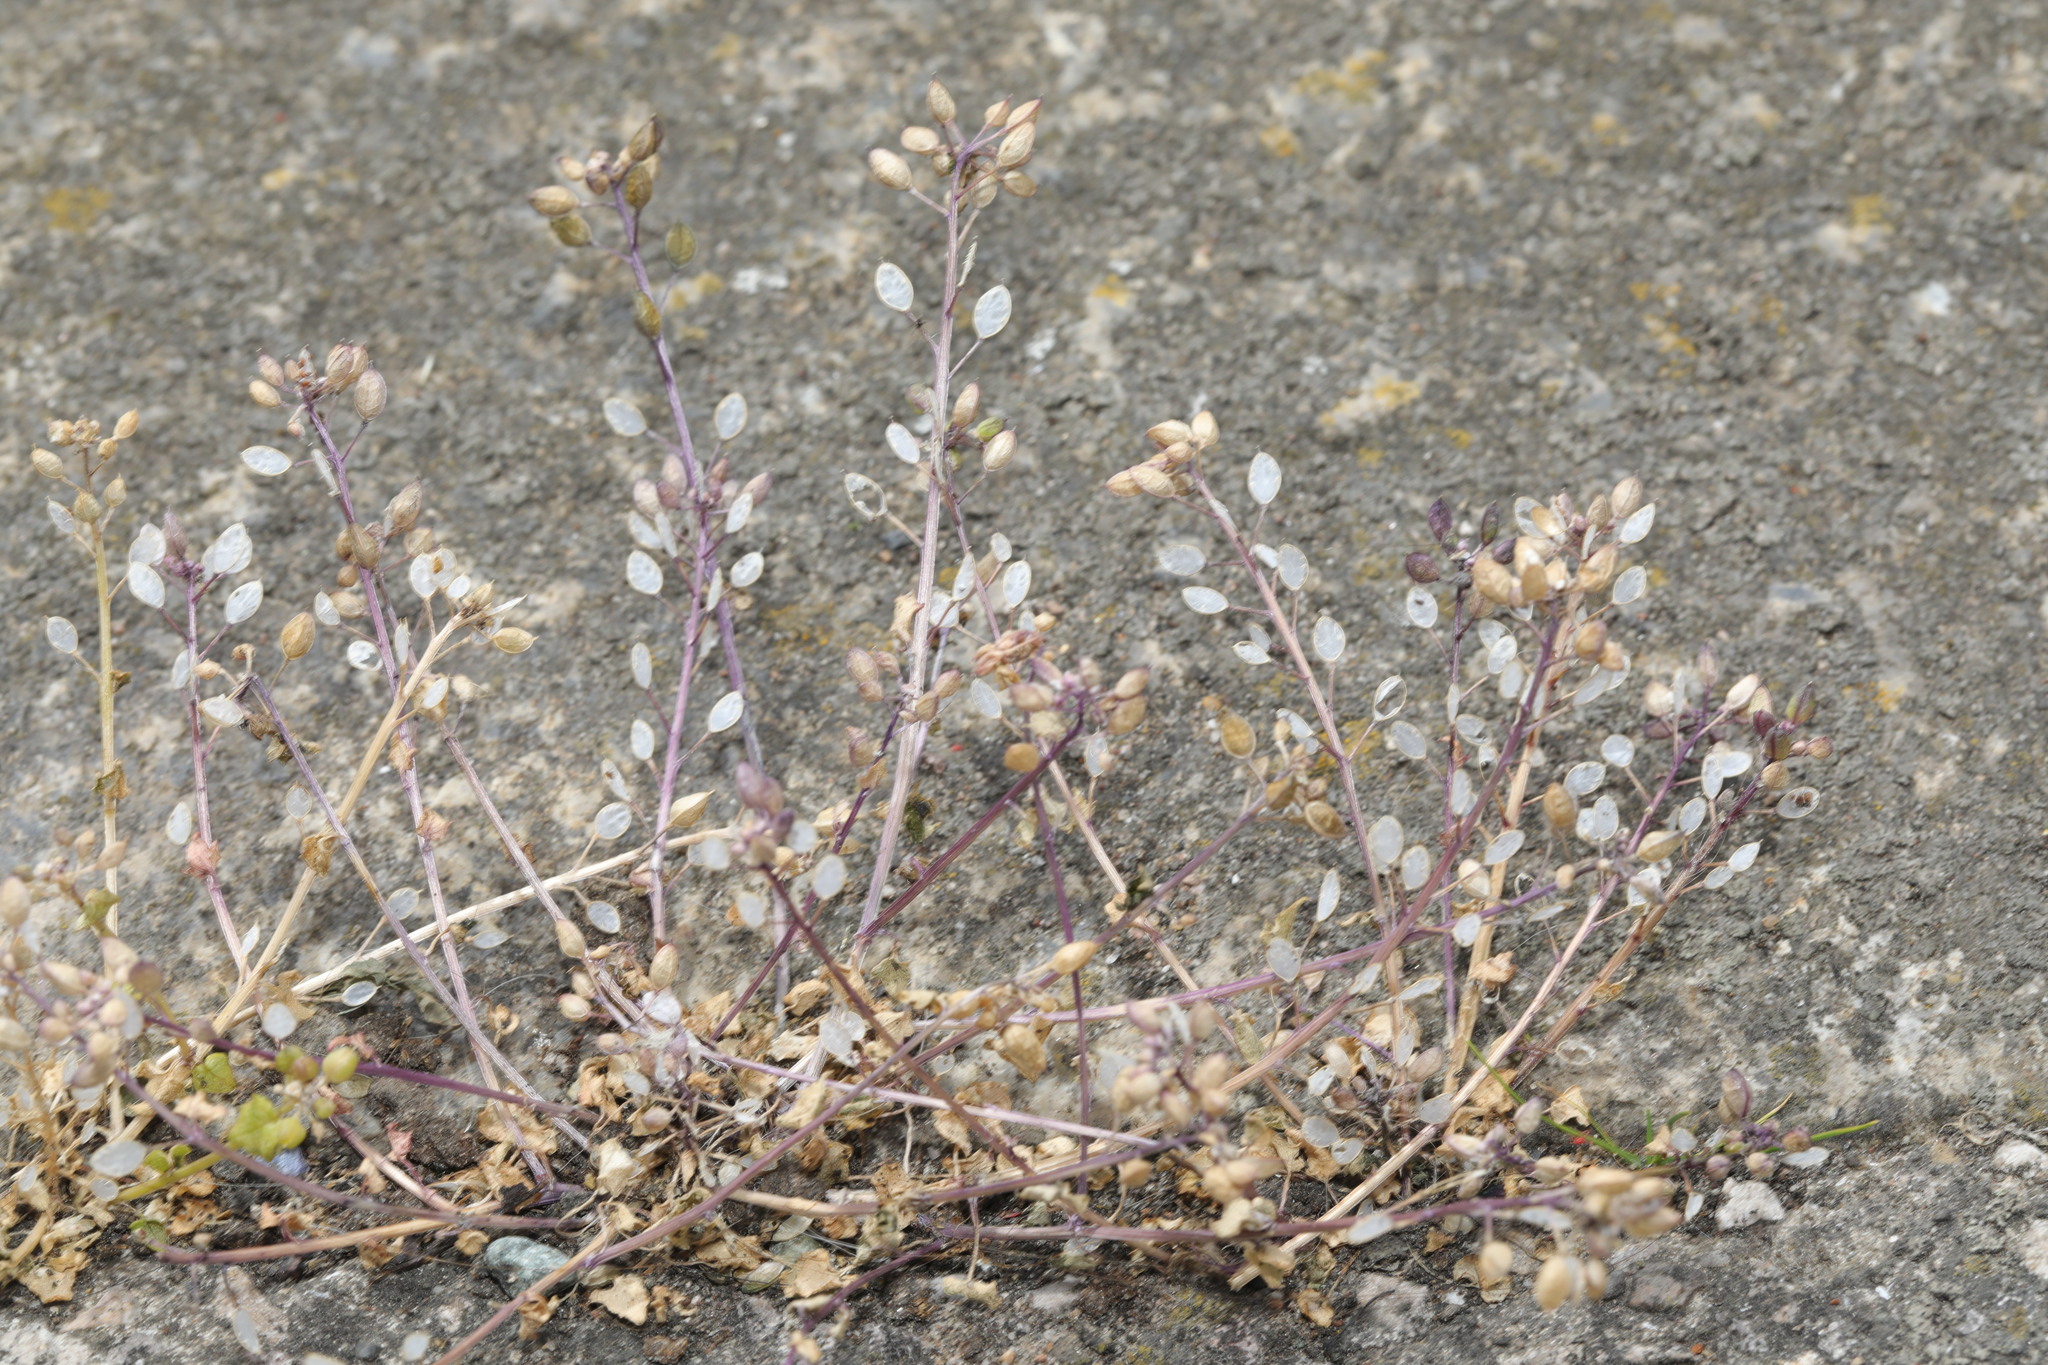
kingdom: Plantae
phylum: Tracheophyta
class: Magnoliopsida
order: Brassicales
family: Brassicaceae
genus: Cochlearia
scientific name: Cochlearia danica
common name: Early scurvygrass
